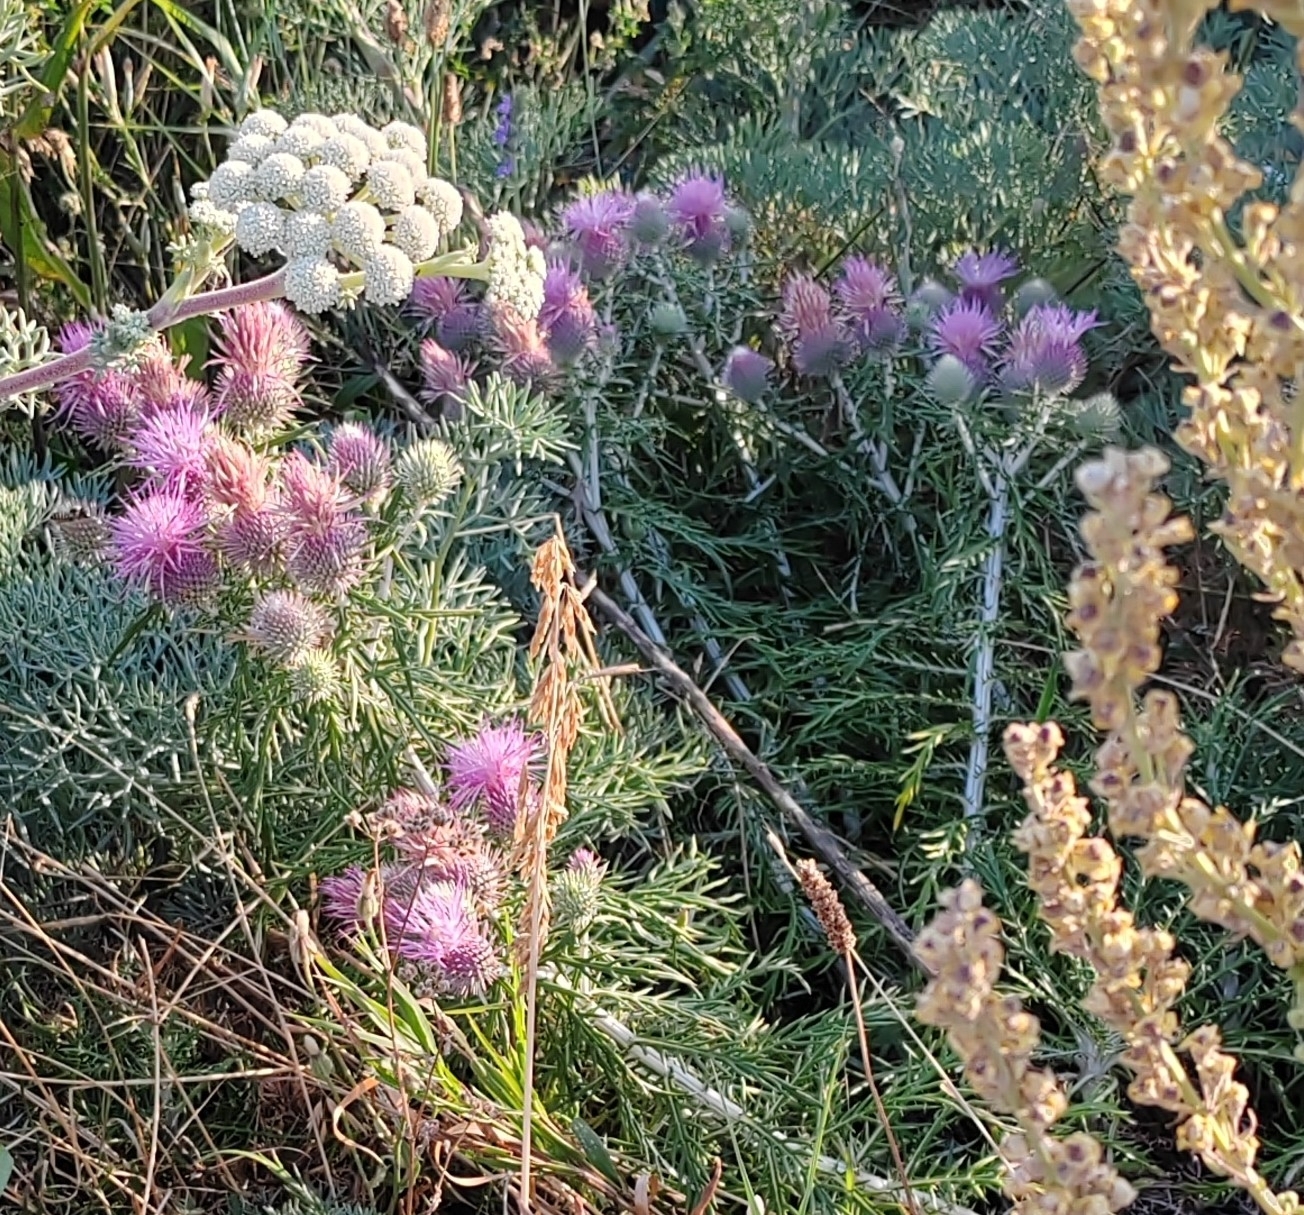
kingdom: Plantae
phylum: Tracheophyta
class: Magnoliopsida
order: Asterales
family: Asteraceae
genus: Ptilostemon
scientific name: Ptilostemon echinocephalus
